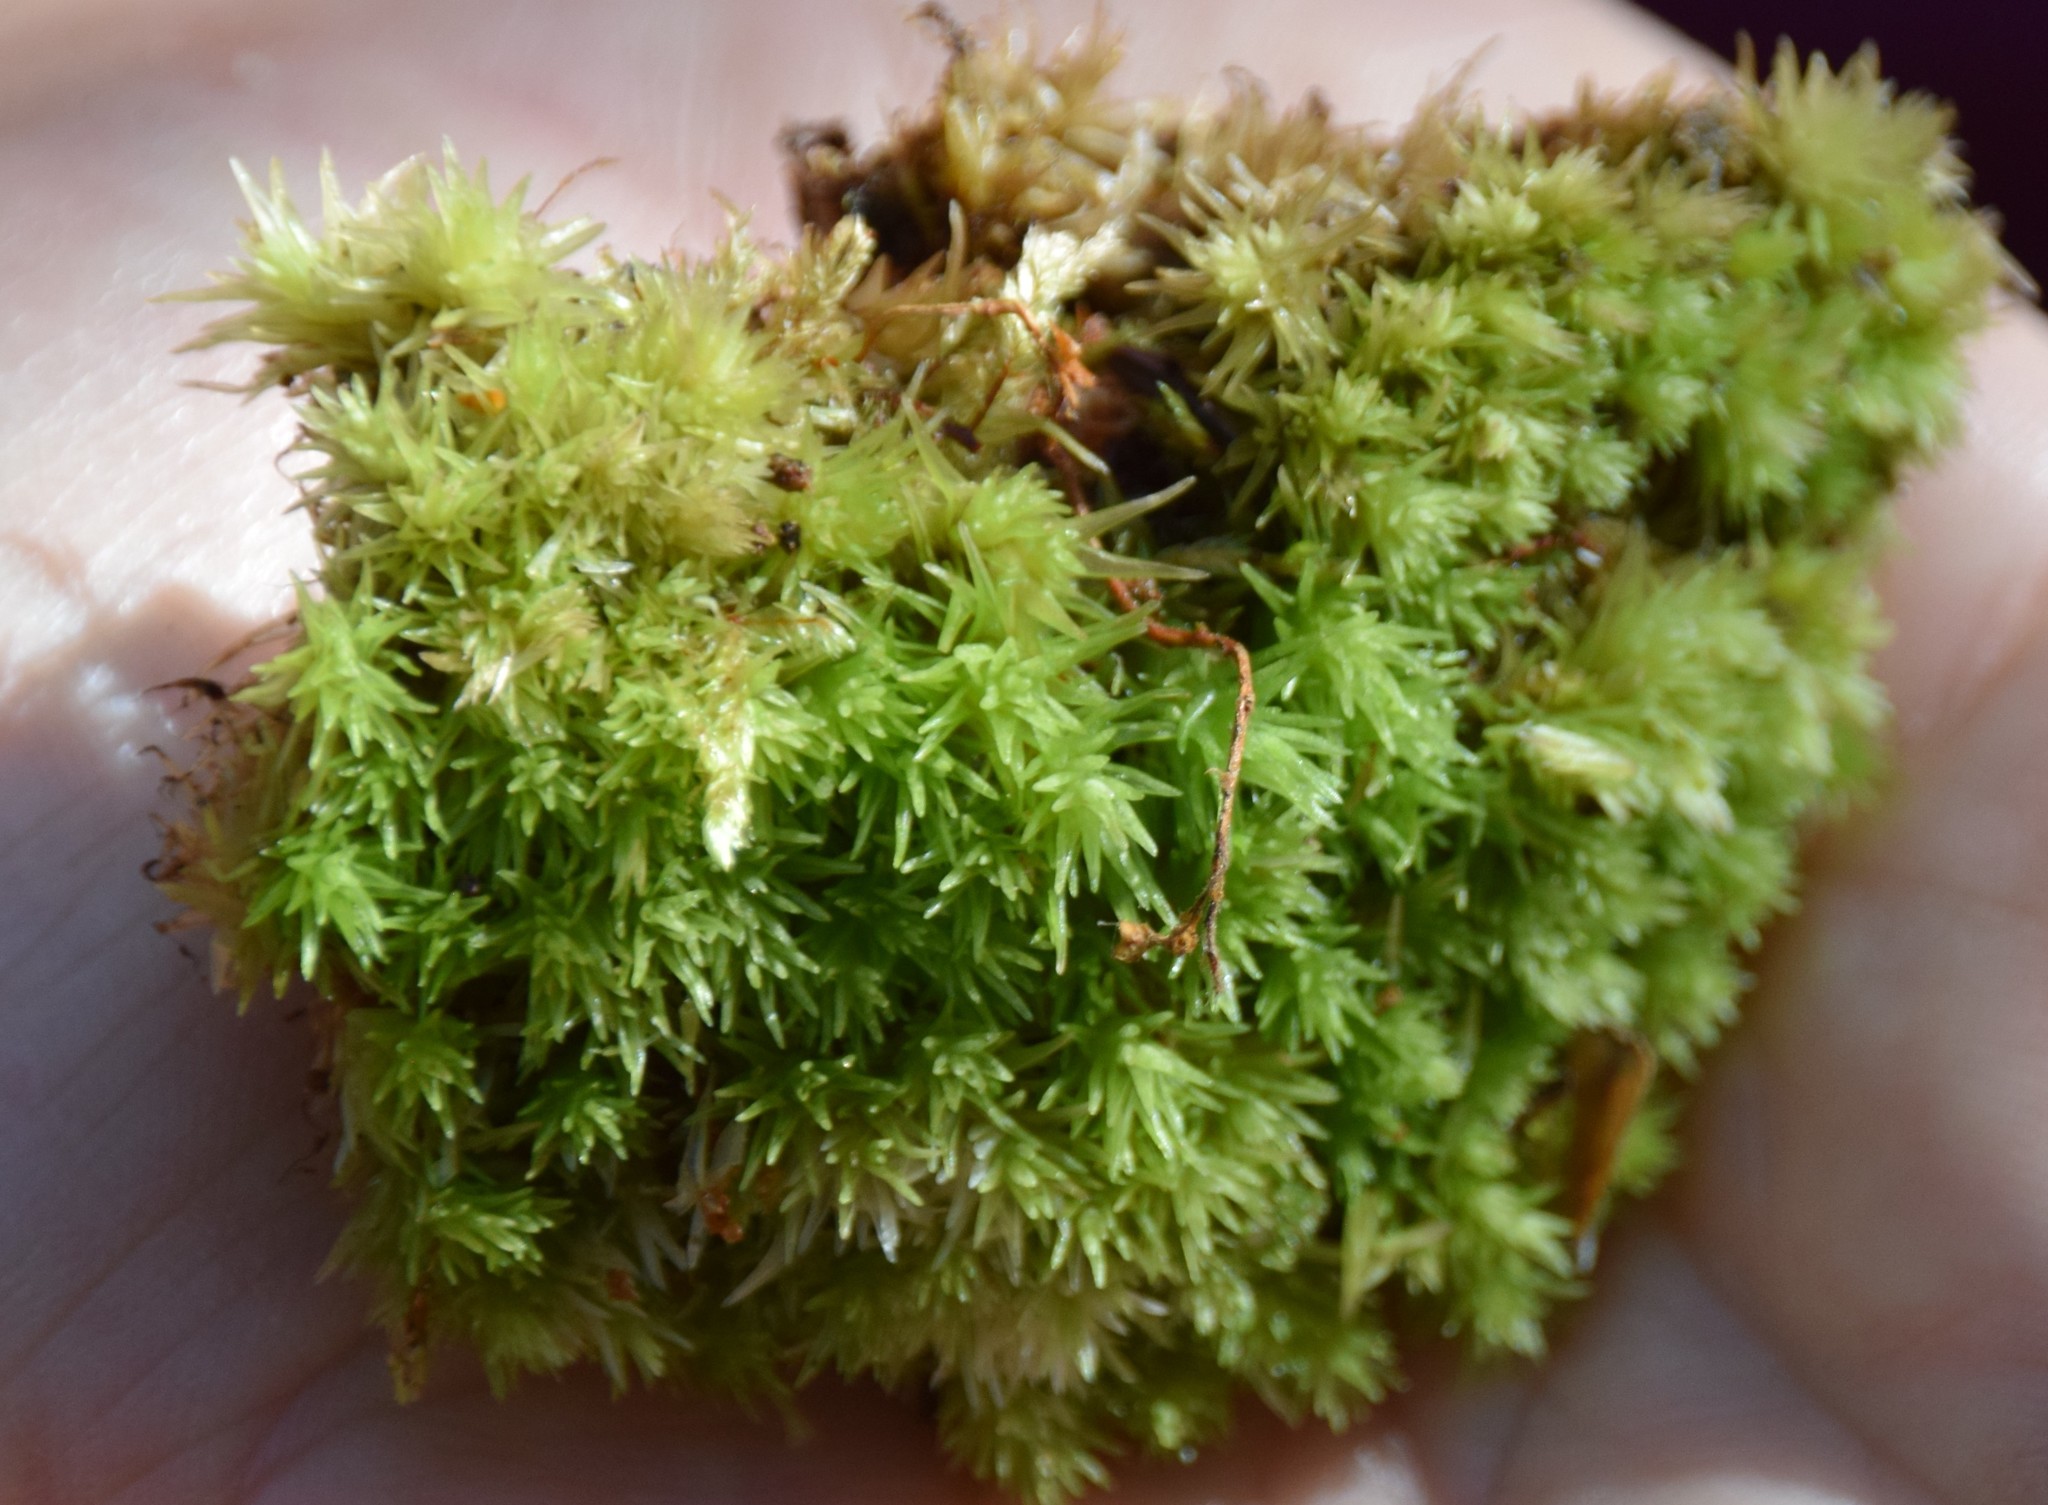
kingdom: Plantae
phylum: Bryophyta
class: Bryopsida
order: Dicranales
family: Leucobryaceae
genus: Leucobryum
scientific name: Leucobryum glaucum
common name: Large white-moss
